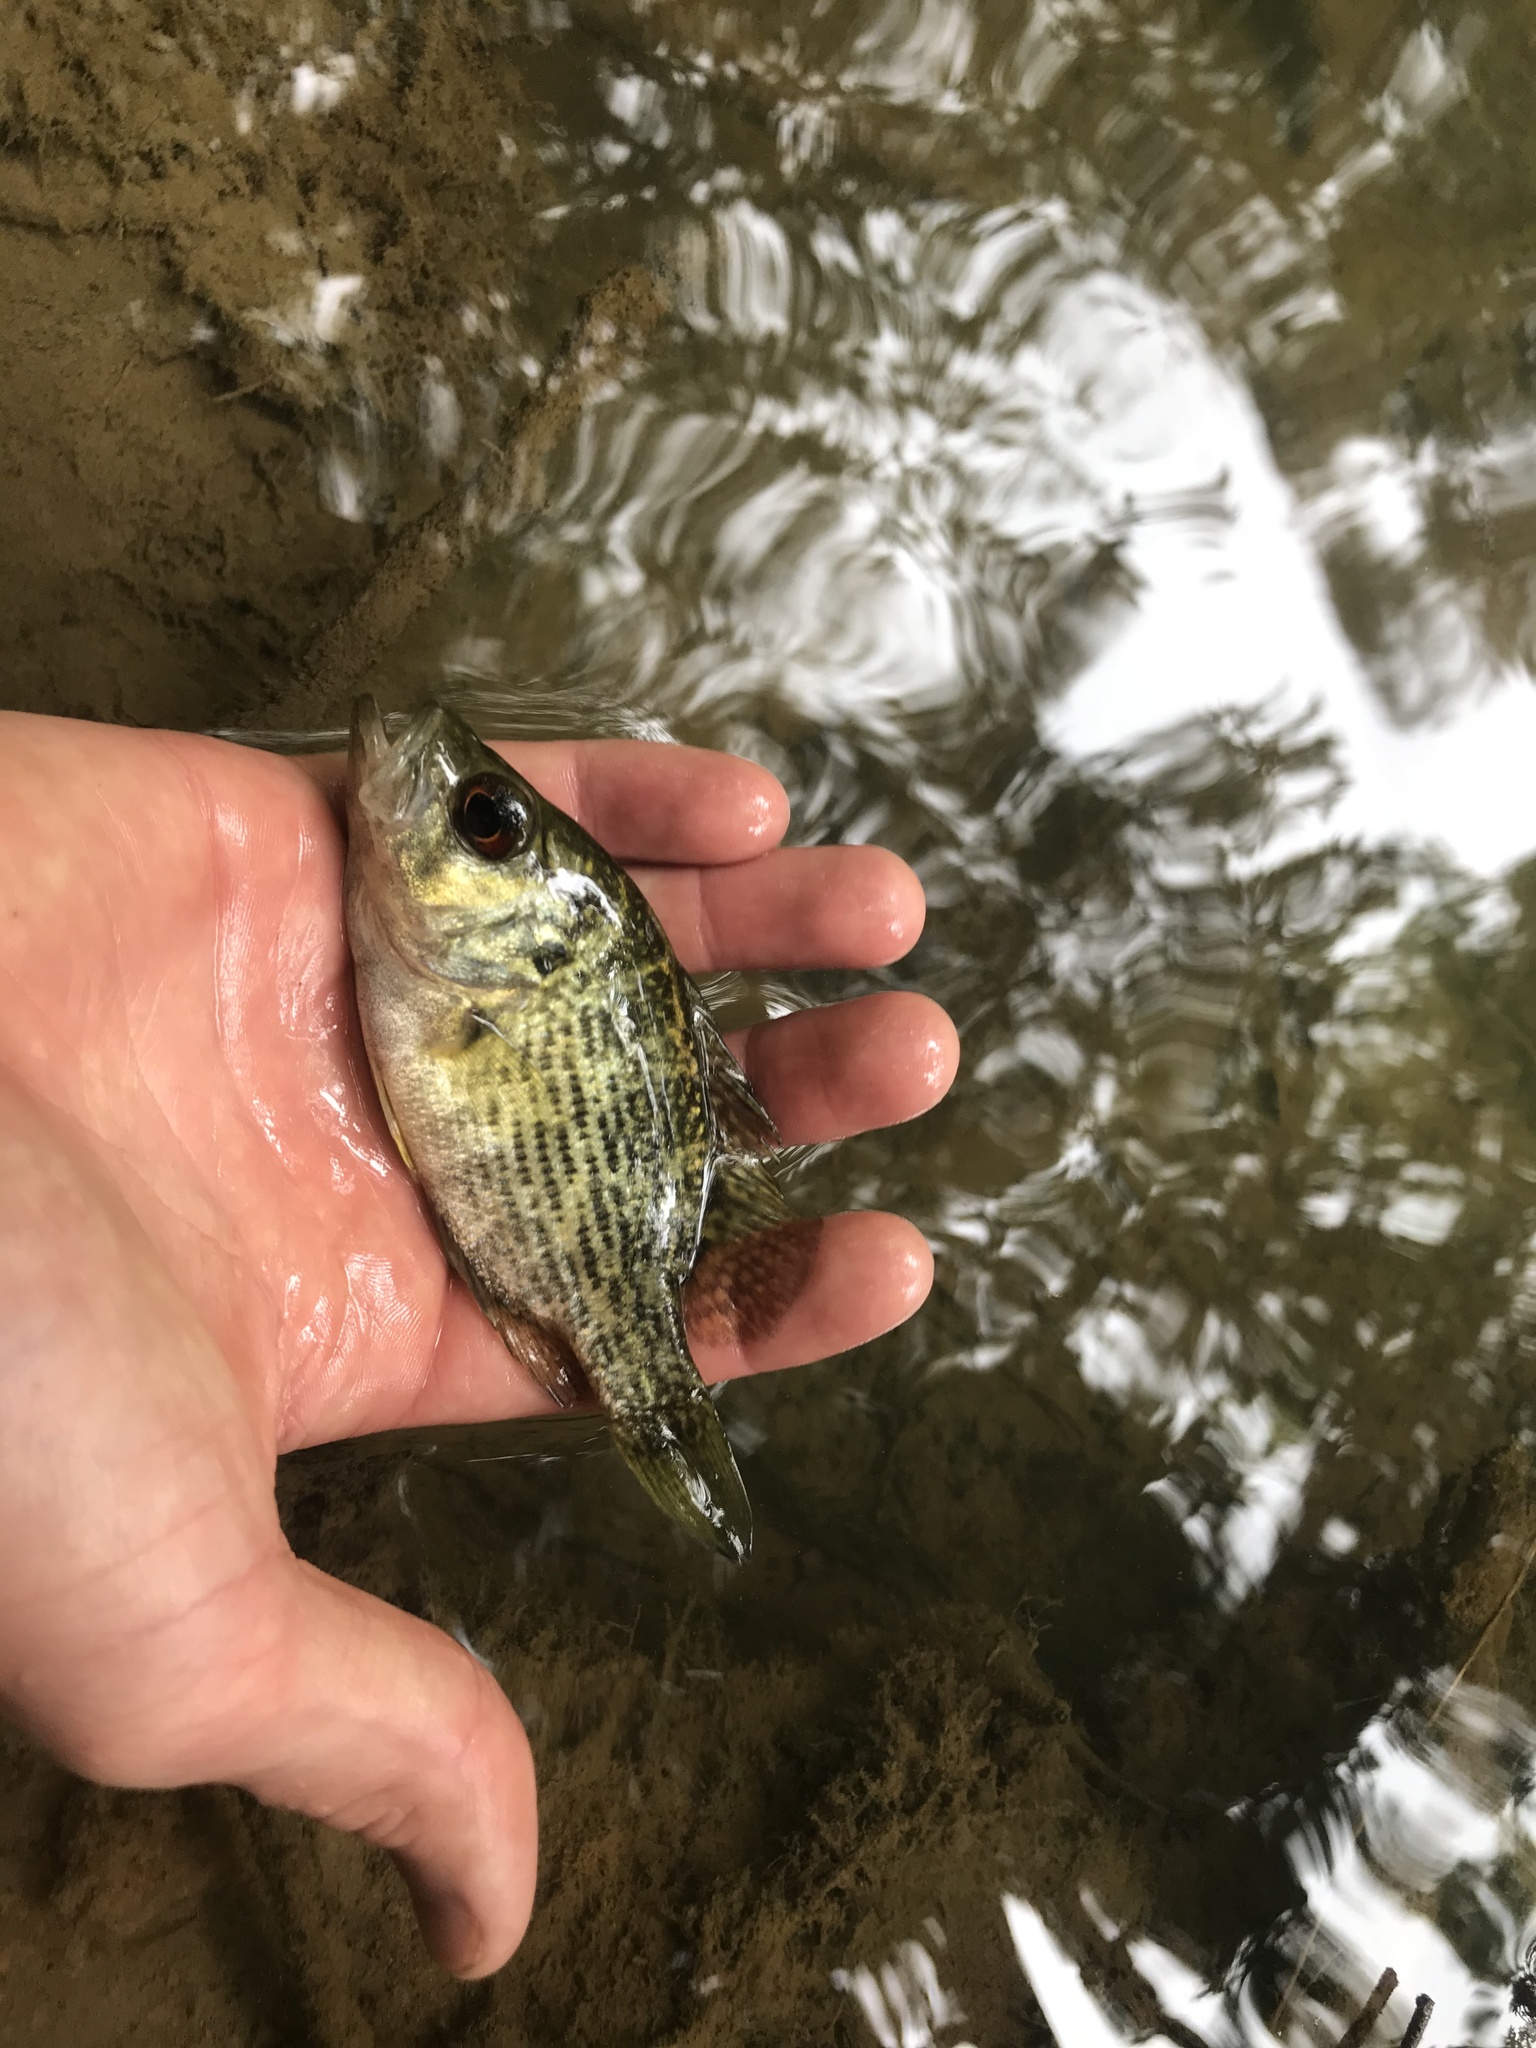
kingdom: Animalia
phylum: Chordata
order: Perciformes
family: Centrarchidae
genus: Ambloplites
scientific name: Ambloplites cavifrons
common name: Roanoke bass
